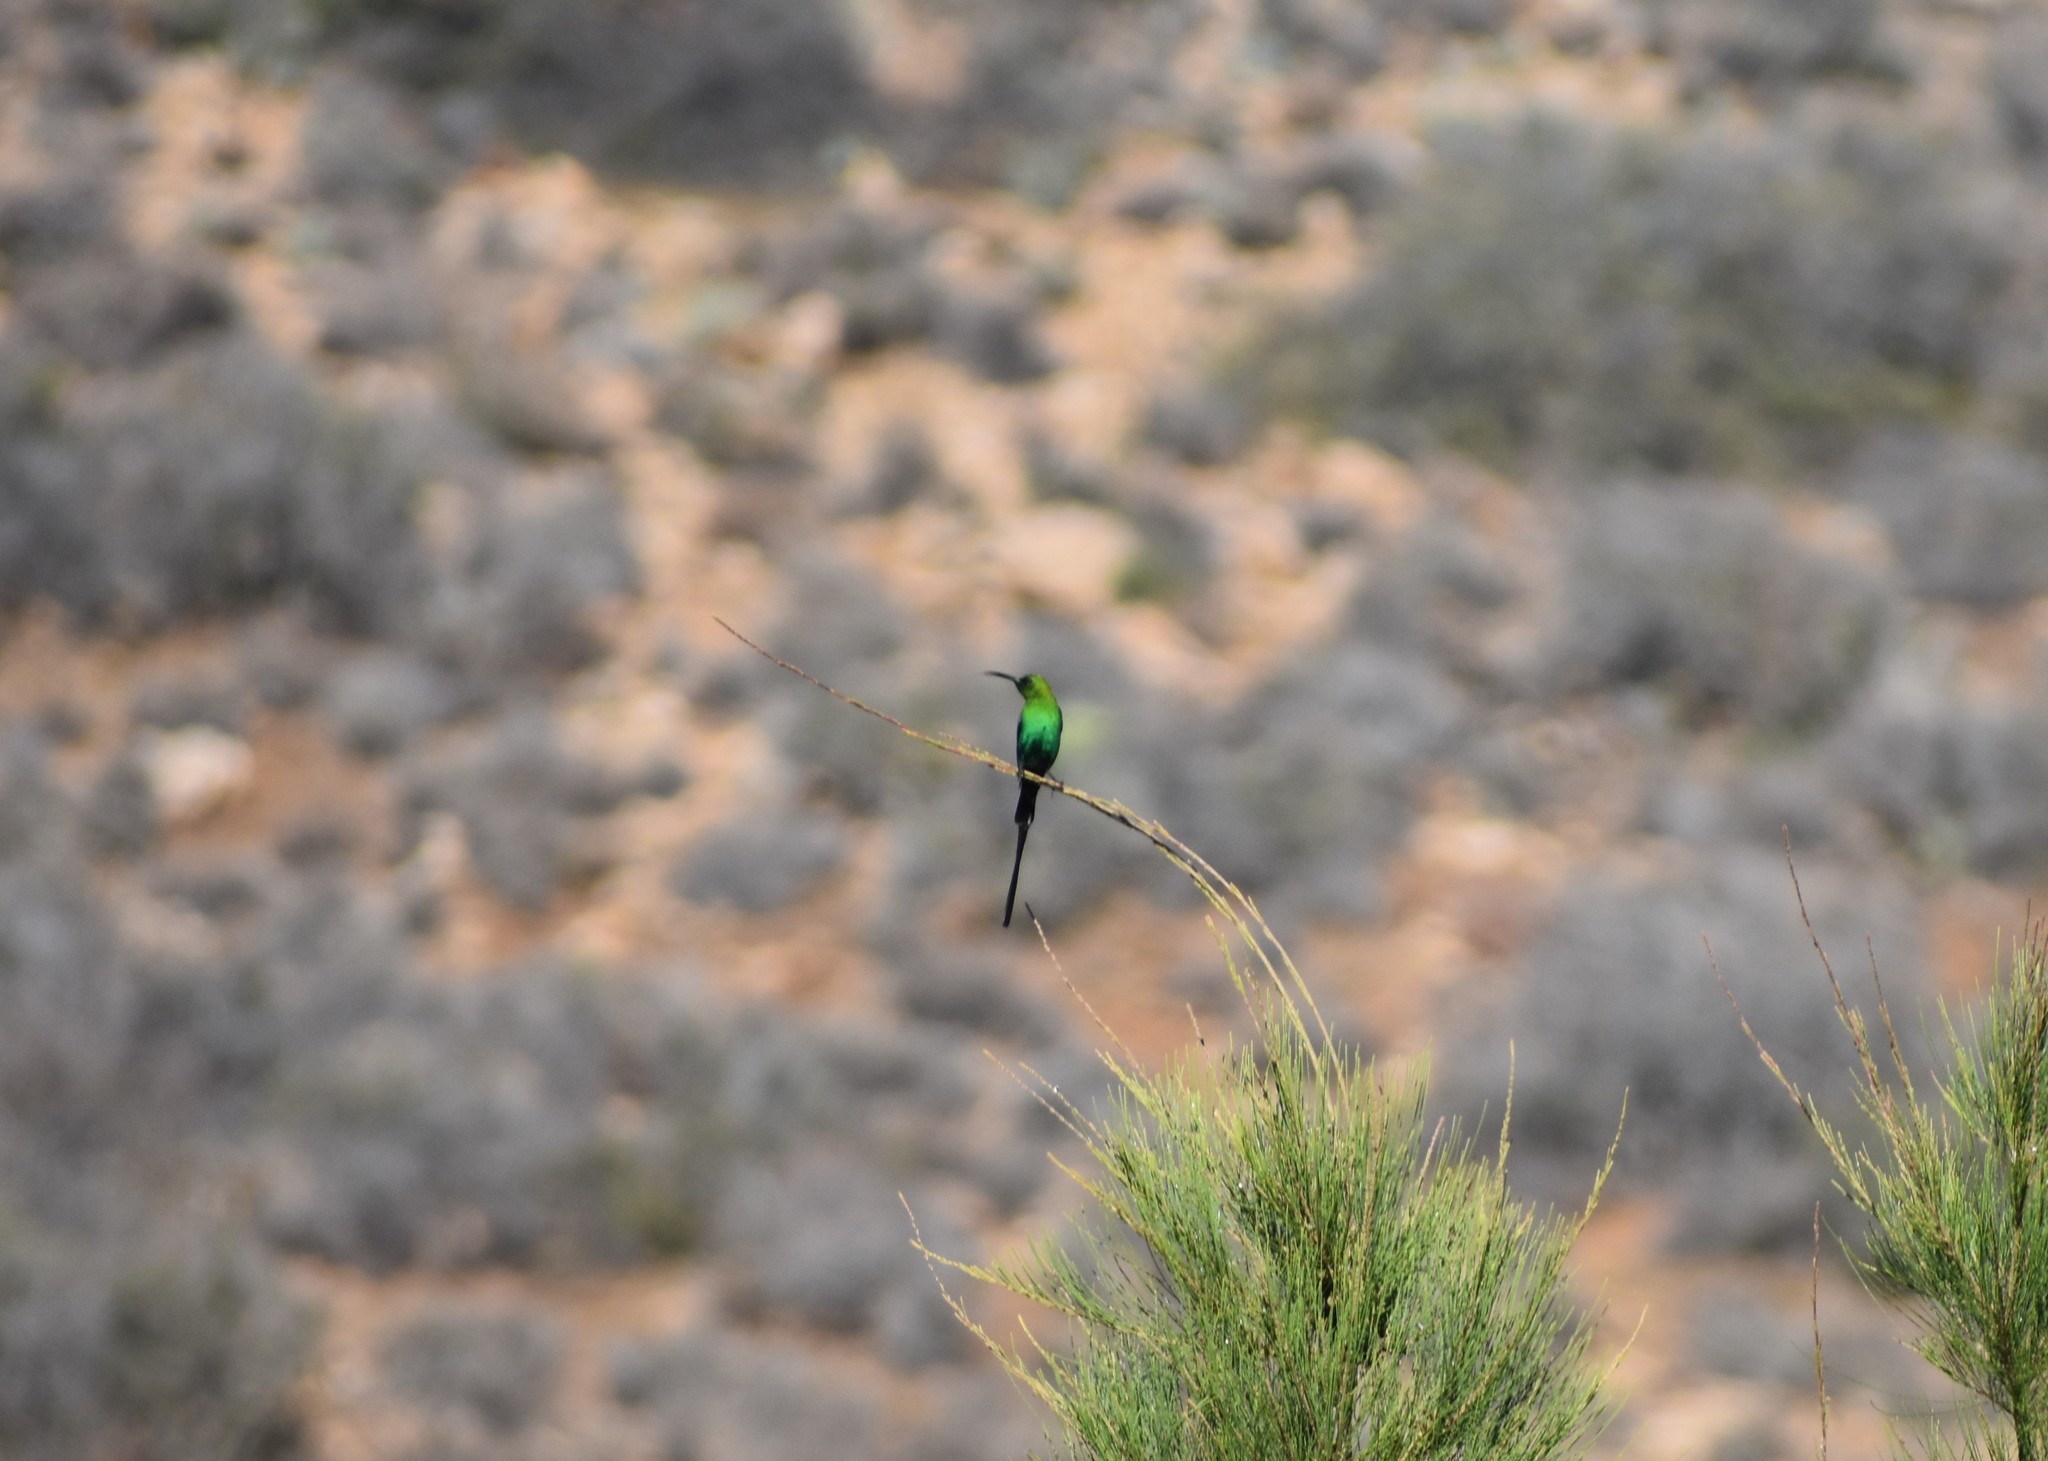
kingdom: Animalia
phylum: Chordata
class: Aves
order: Passeriformes
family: Nectariniidae
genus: Nectarinia
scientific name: Nectarinia famosa
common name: Malachite sunbird
